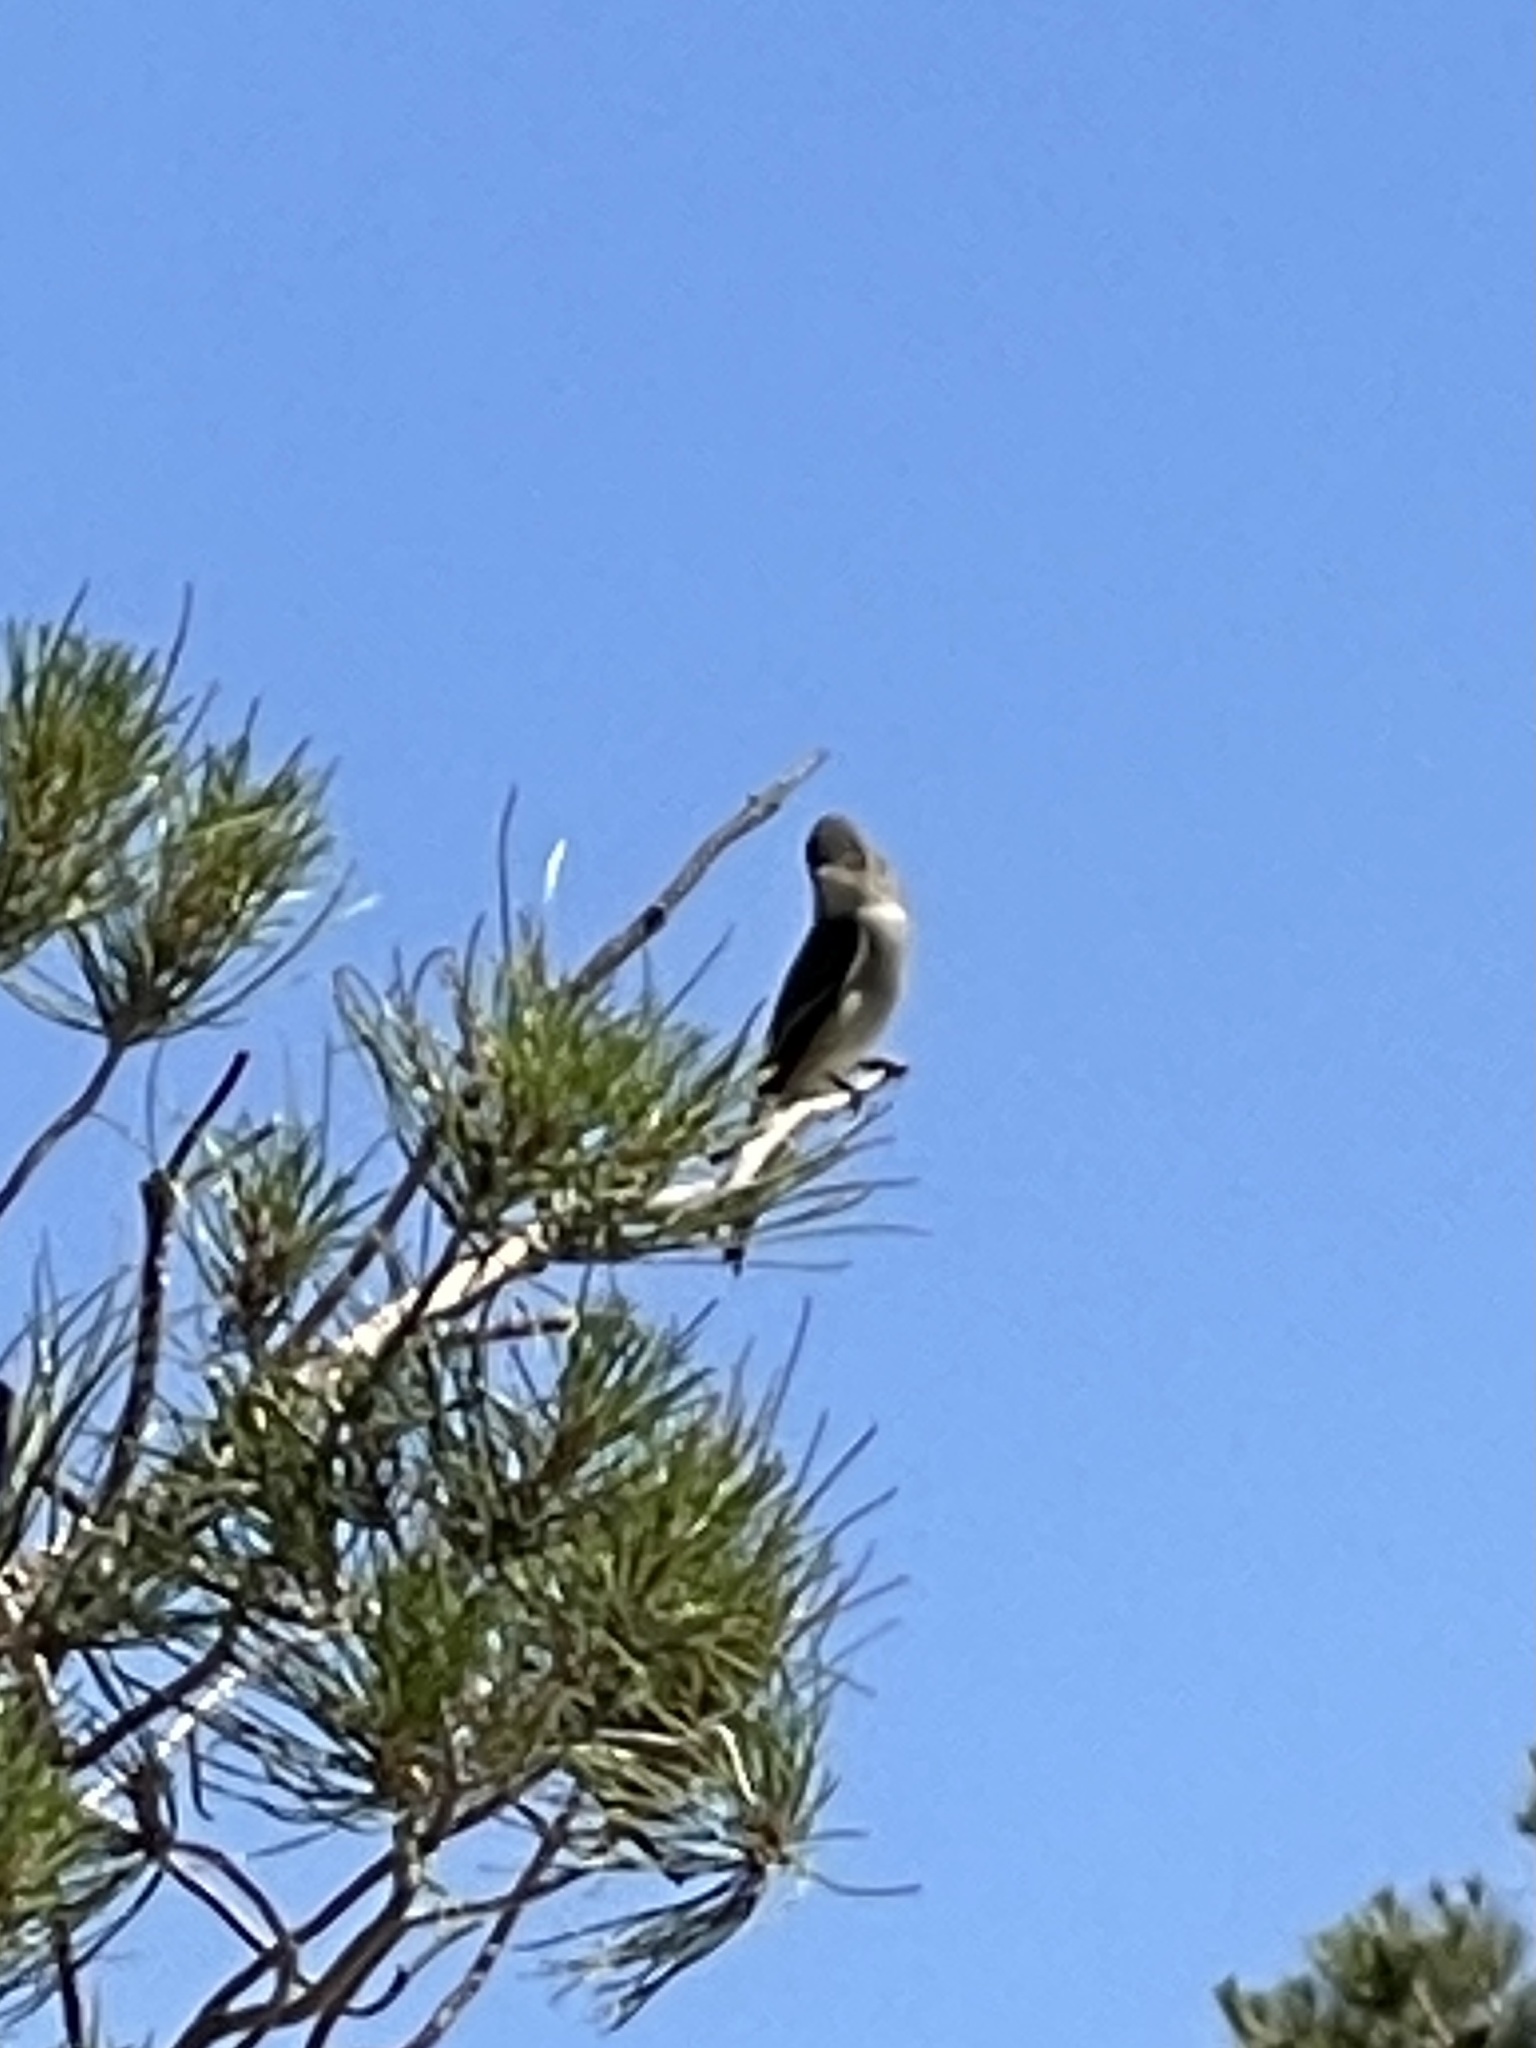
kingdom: Animalia
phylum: Chordata
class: Aves
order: Passeriformes
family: Tyrannidae
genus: Contopus
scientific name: Contopus sordidulus
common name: Western wood-pewee
